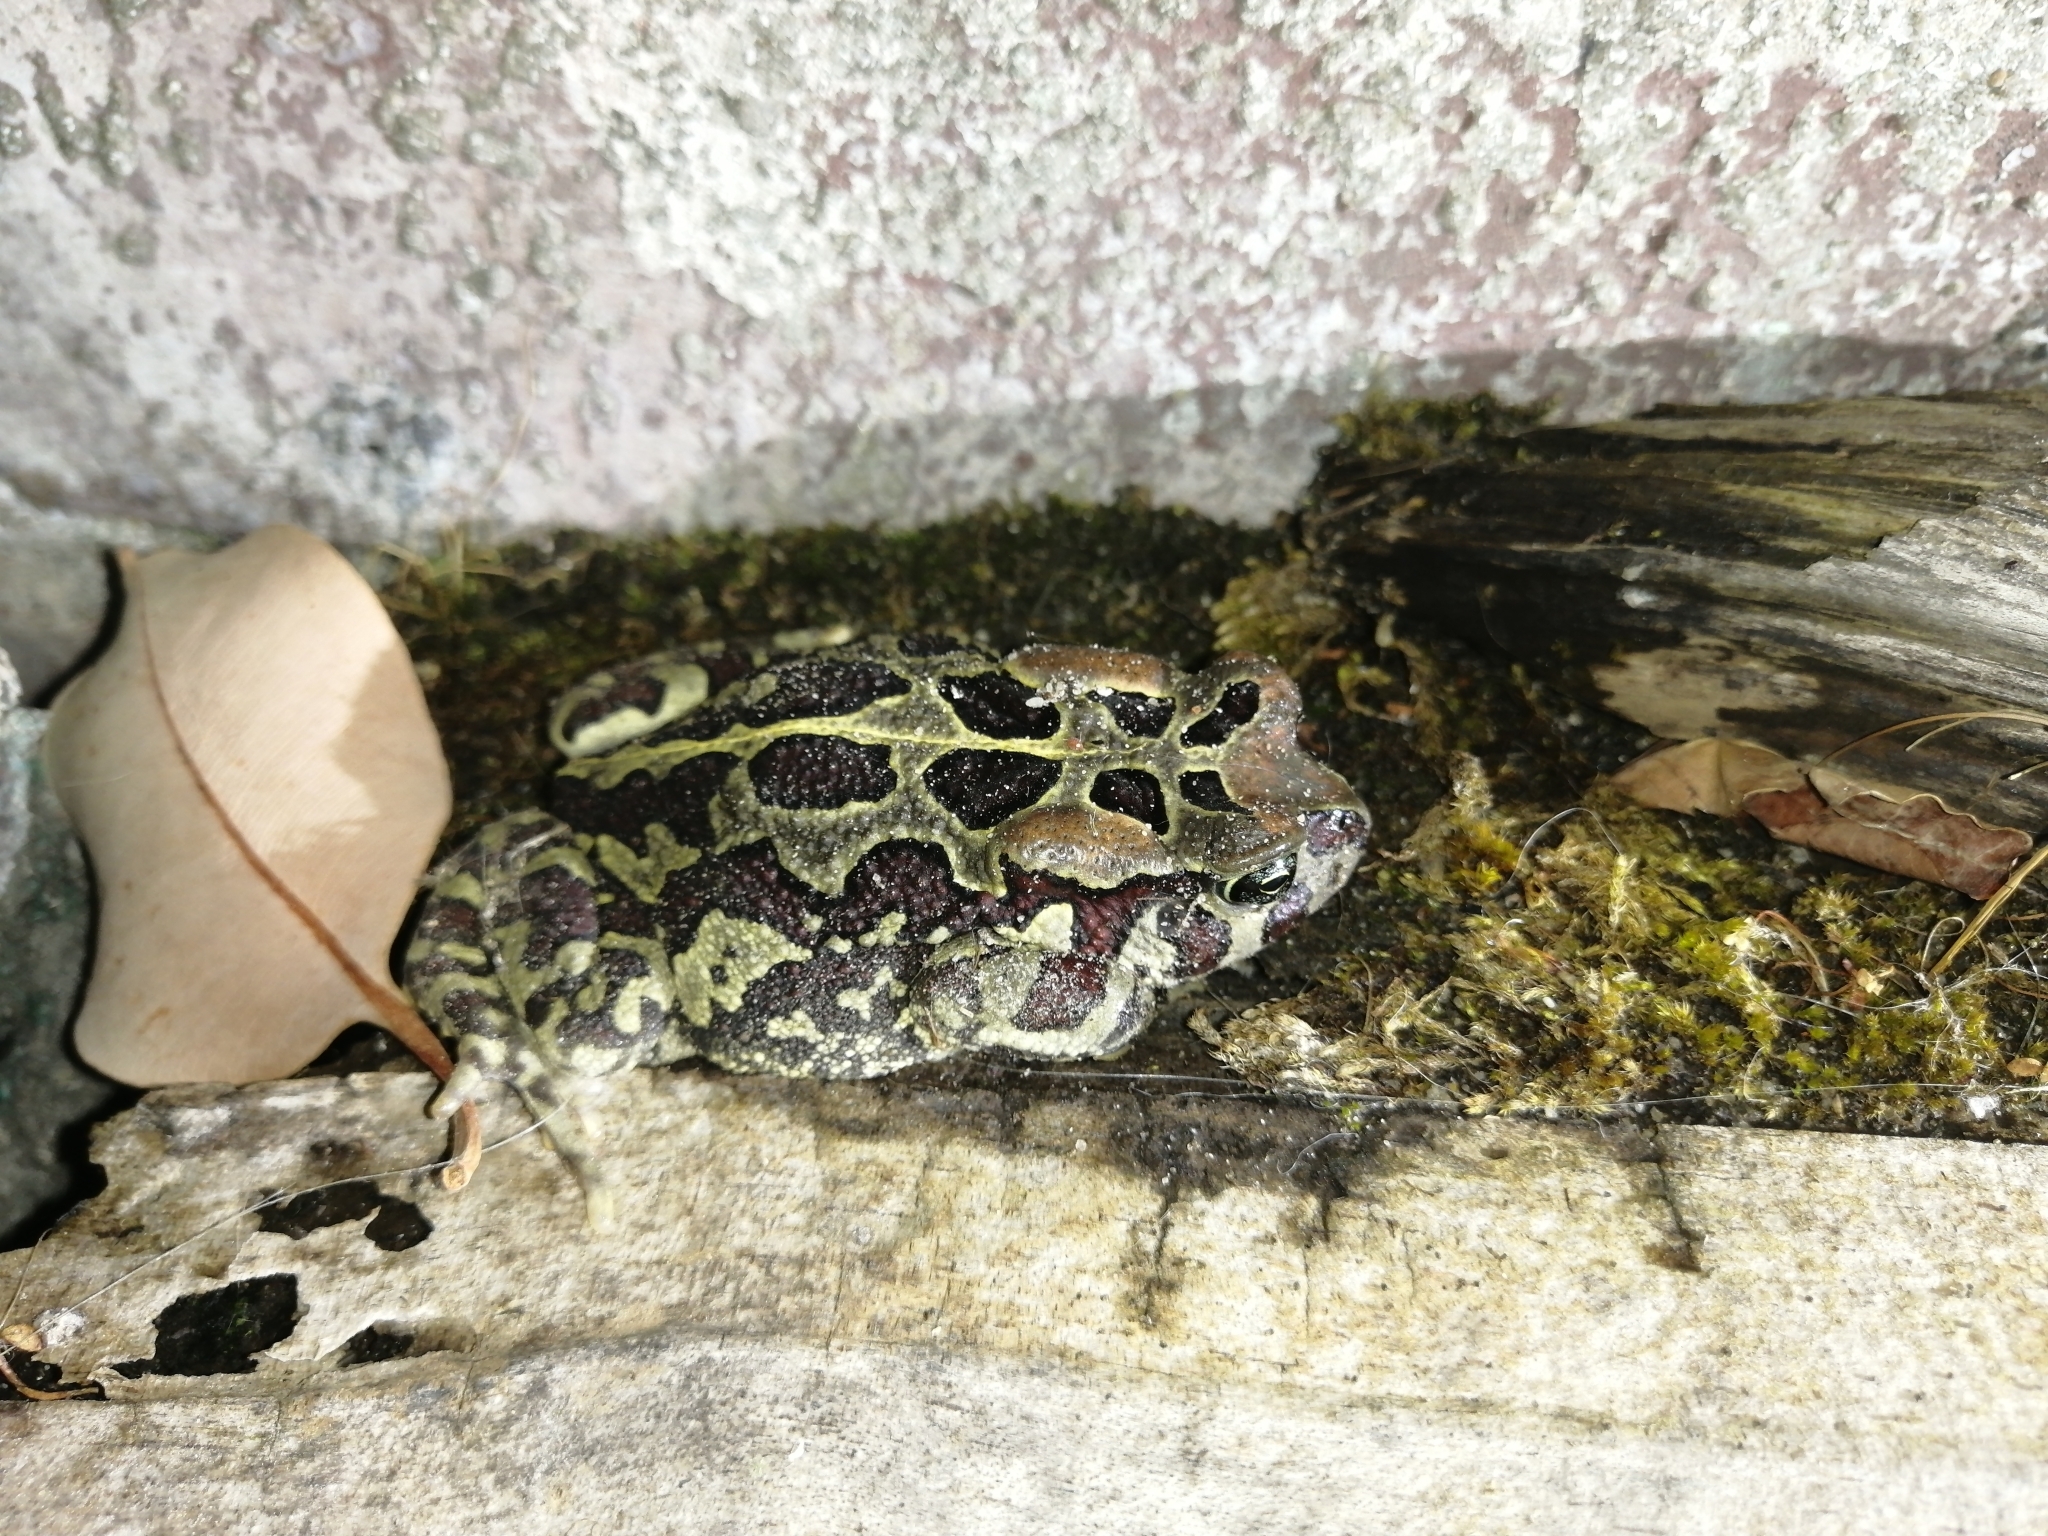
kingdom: Animalia
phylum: Chordata
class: Amphibia
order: Anura
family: Bufonidae
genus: Sclerophrys
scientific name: Sclerophrys pantherina
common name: Panther toad
